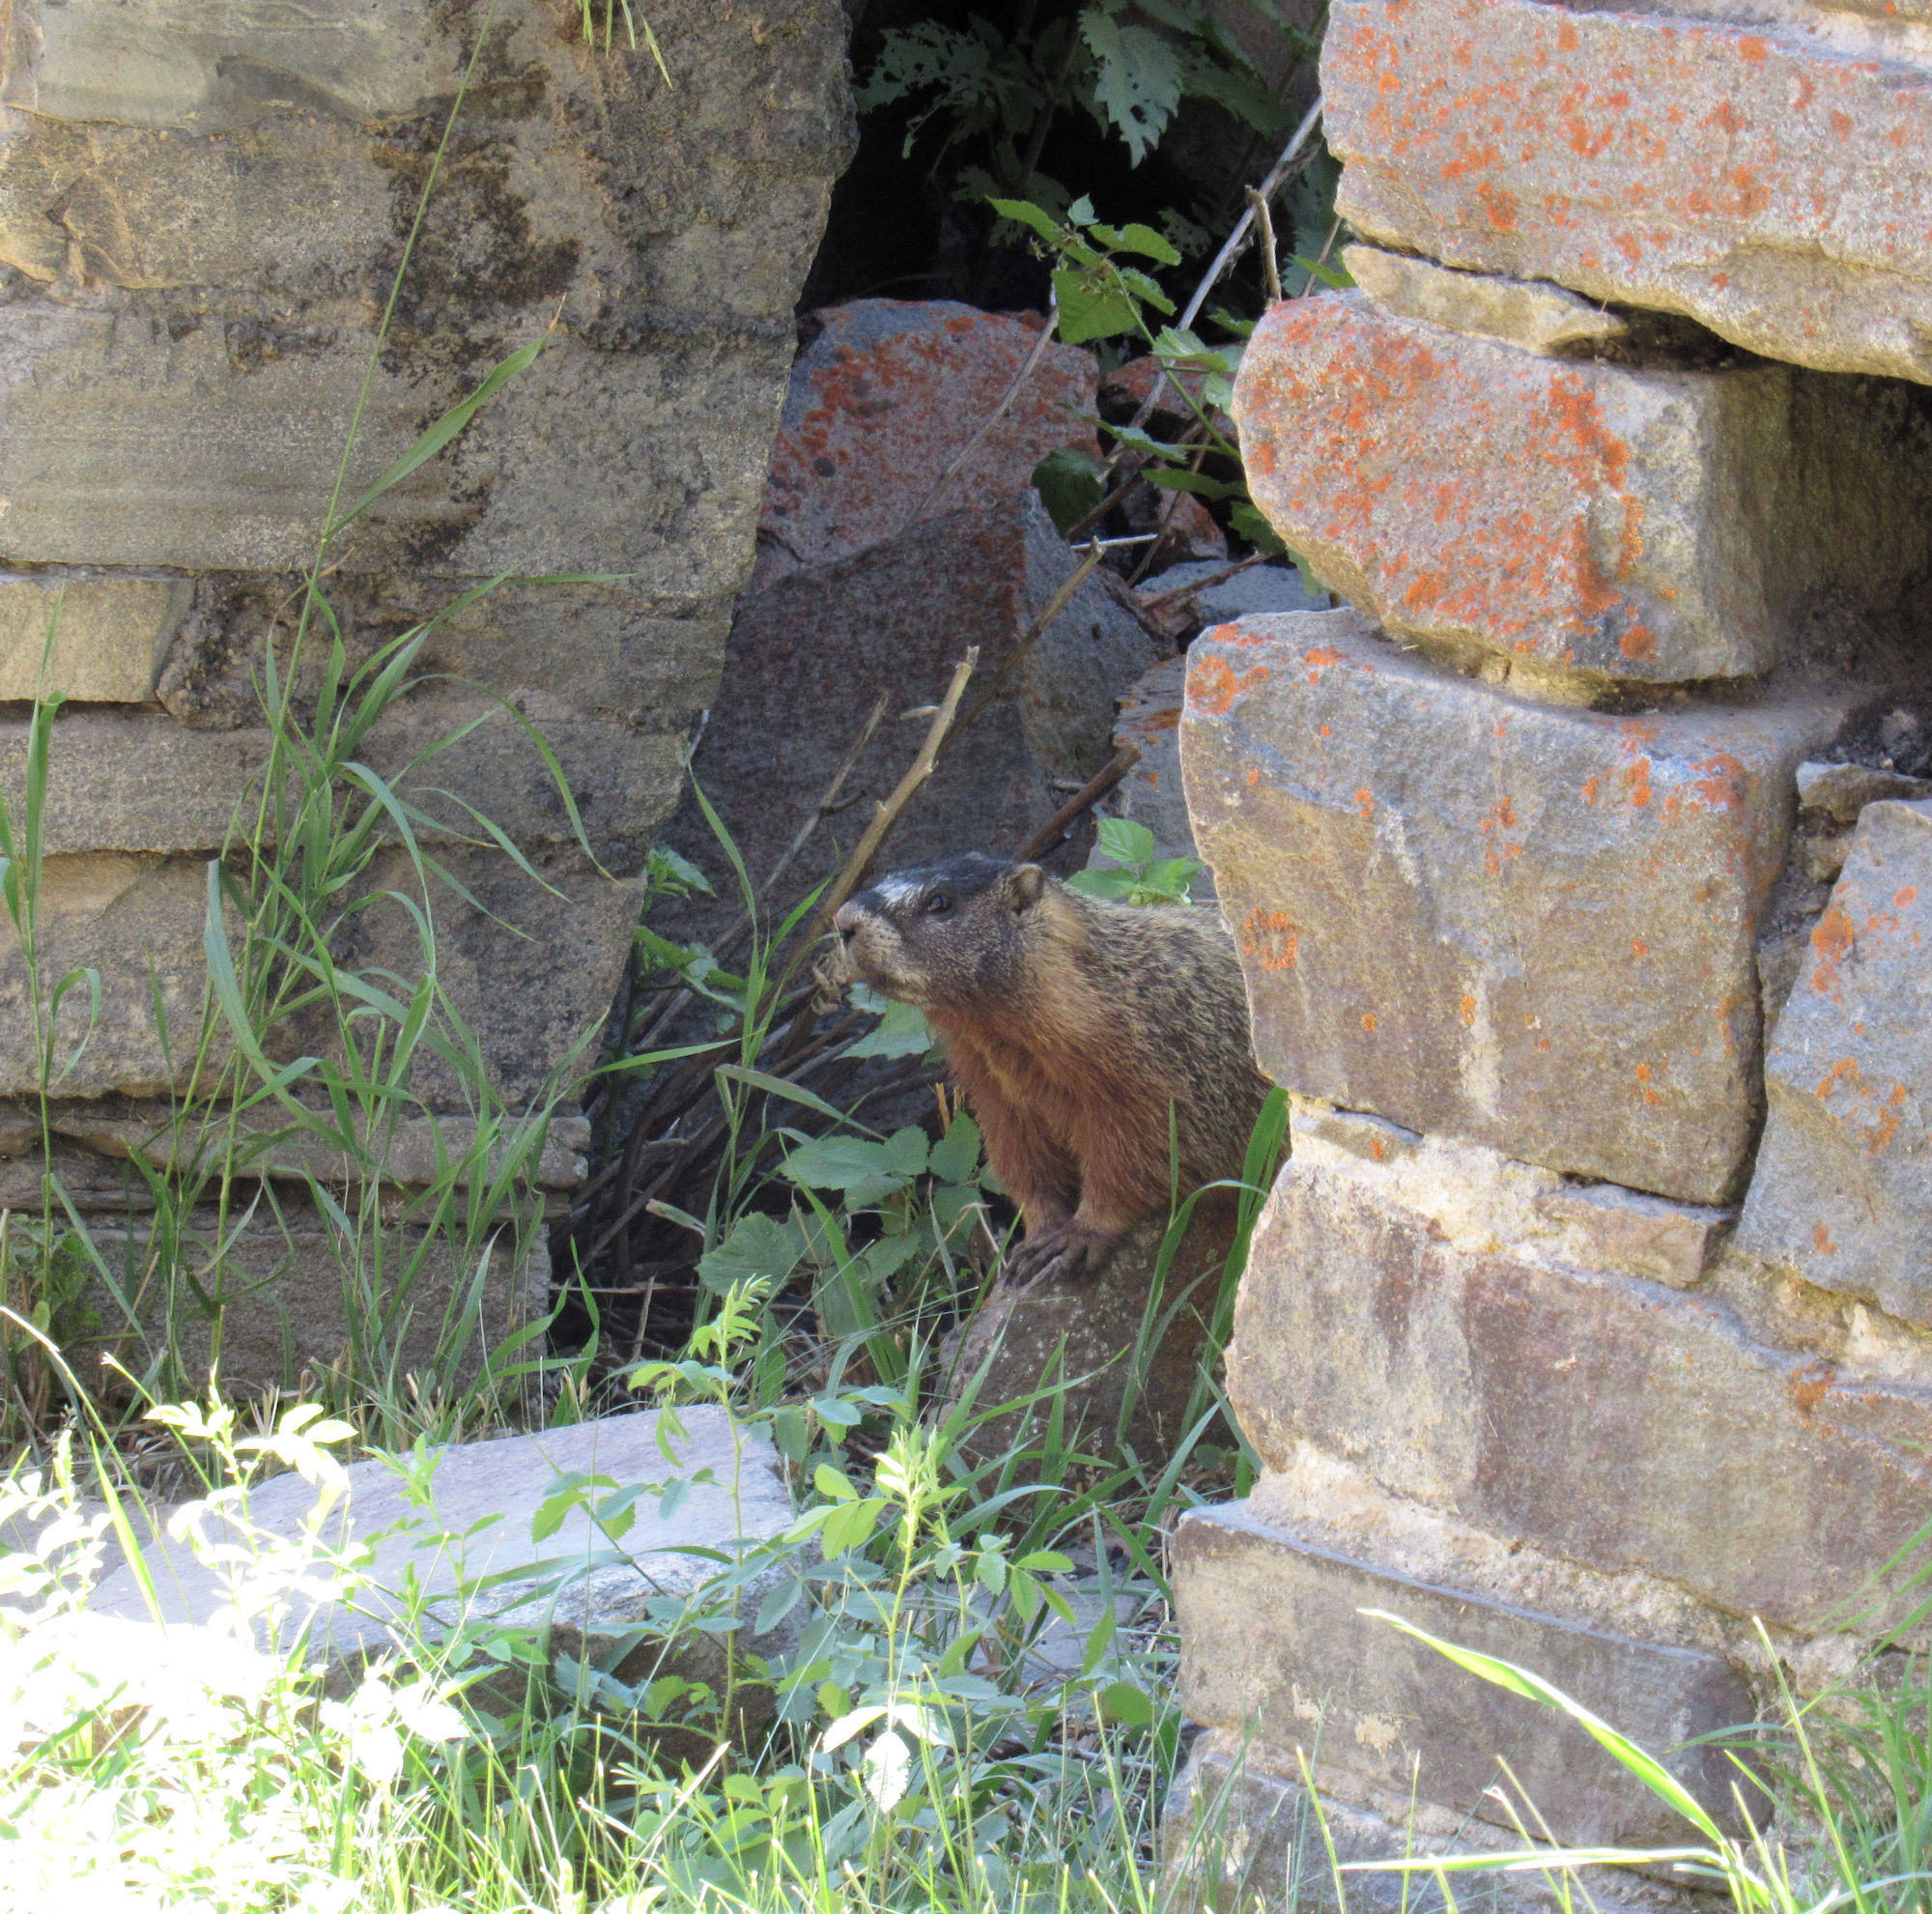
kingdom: Animalia
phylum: Chordata
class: Mammalia
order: Rodentia
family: Sciuridae
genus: Marmota
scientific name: Marmota flaviventris
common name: Yellow-bellied marmot
